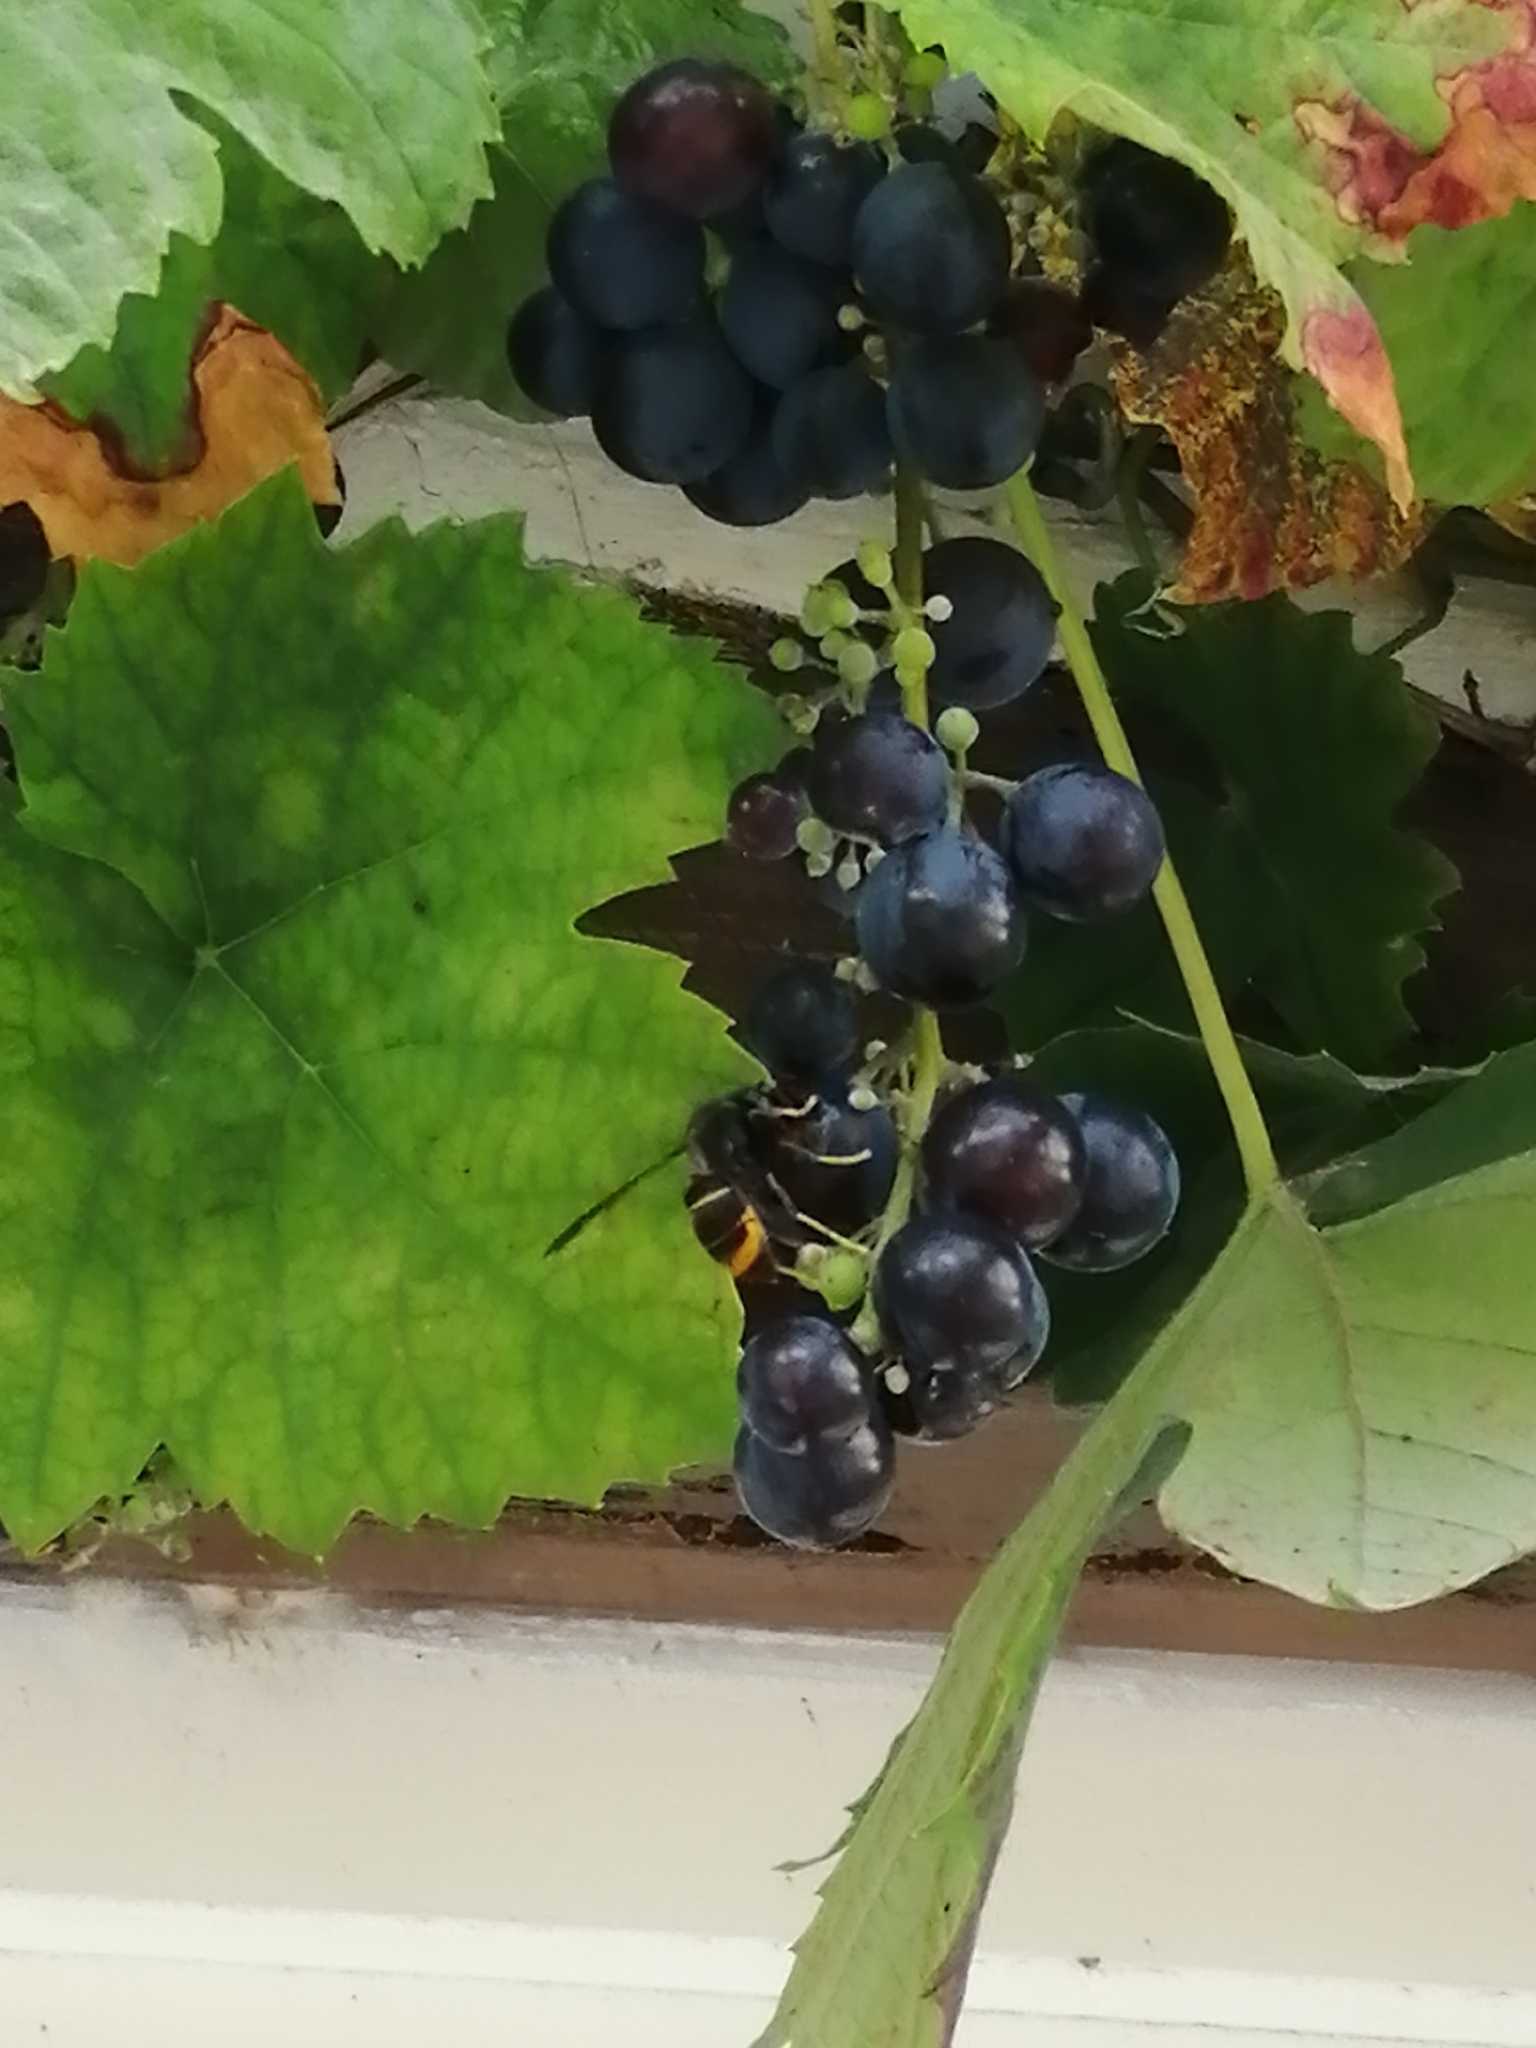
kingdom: Animalia
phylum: Arthropoda
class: Insecta
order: Hymenoptera
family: Vespidae
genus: Vespa
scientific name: Vespa velutina
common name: Asian hornet
